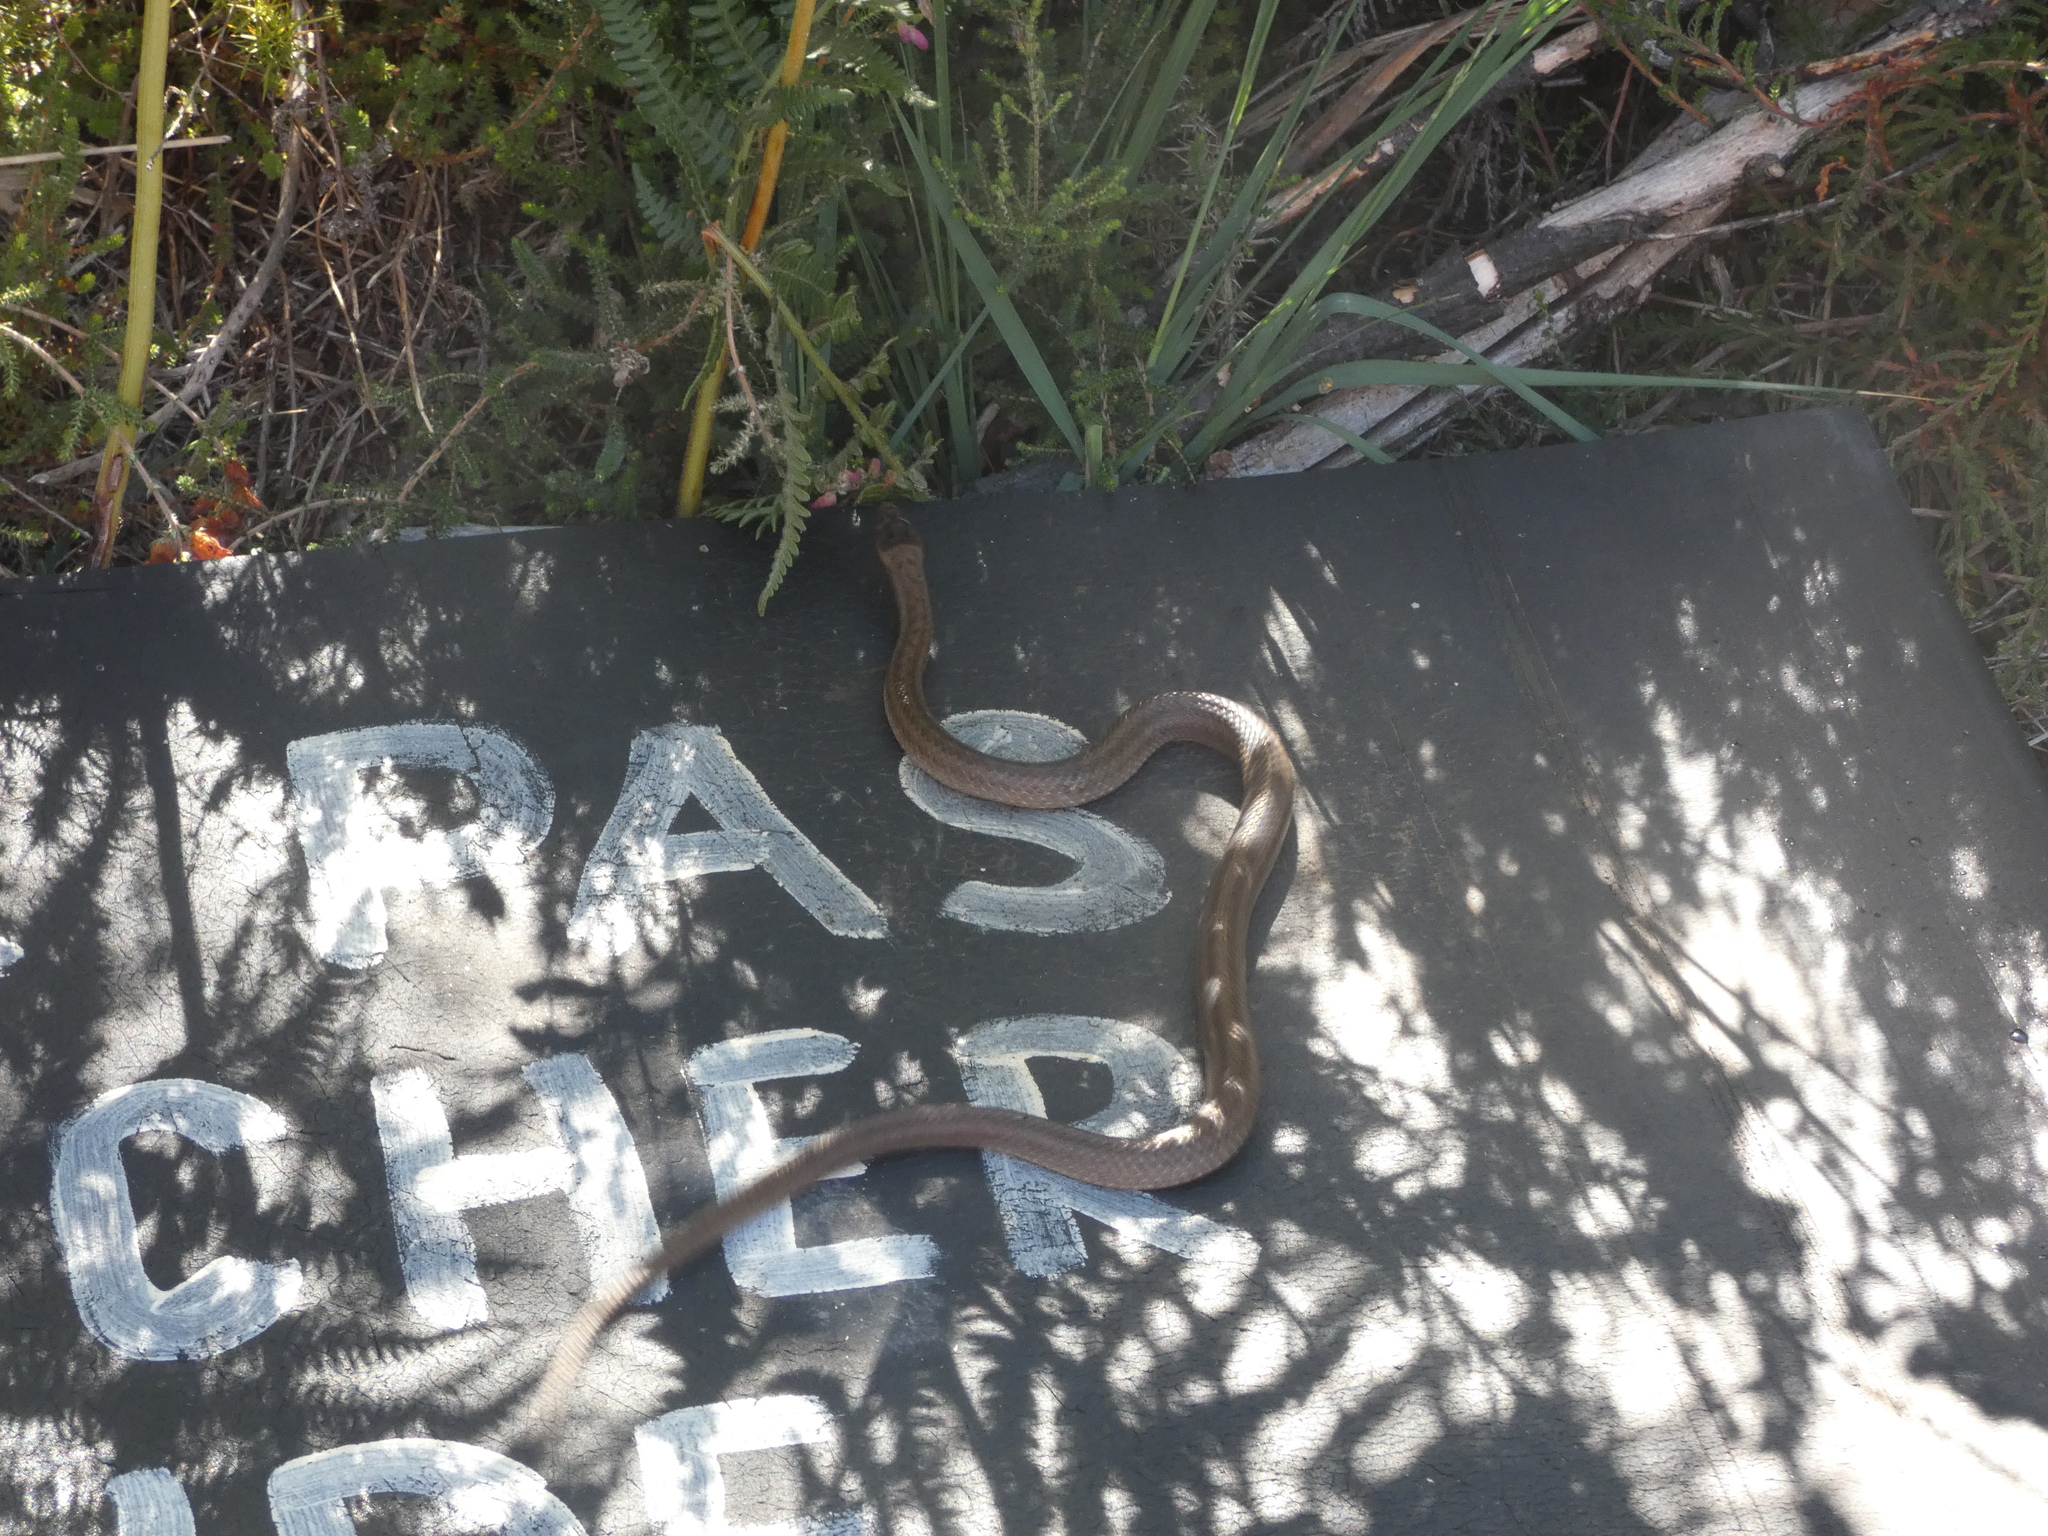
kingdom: Animalia
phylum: Chordata
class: Squamata
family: Colubridae
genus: Coronella
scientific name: Coronella austriaca
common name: Smooth snake
